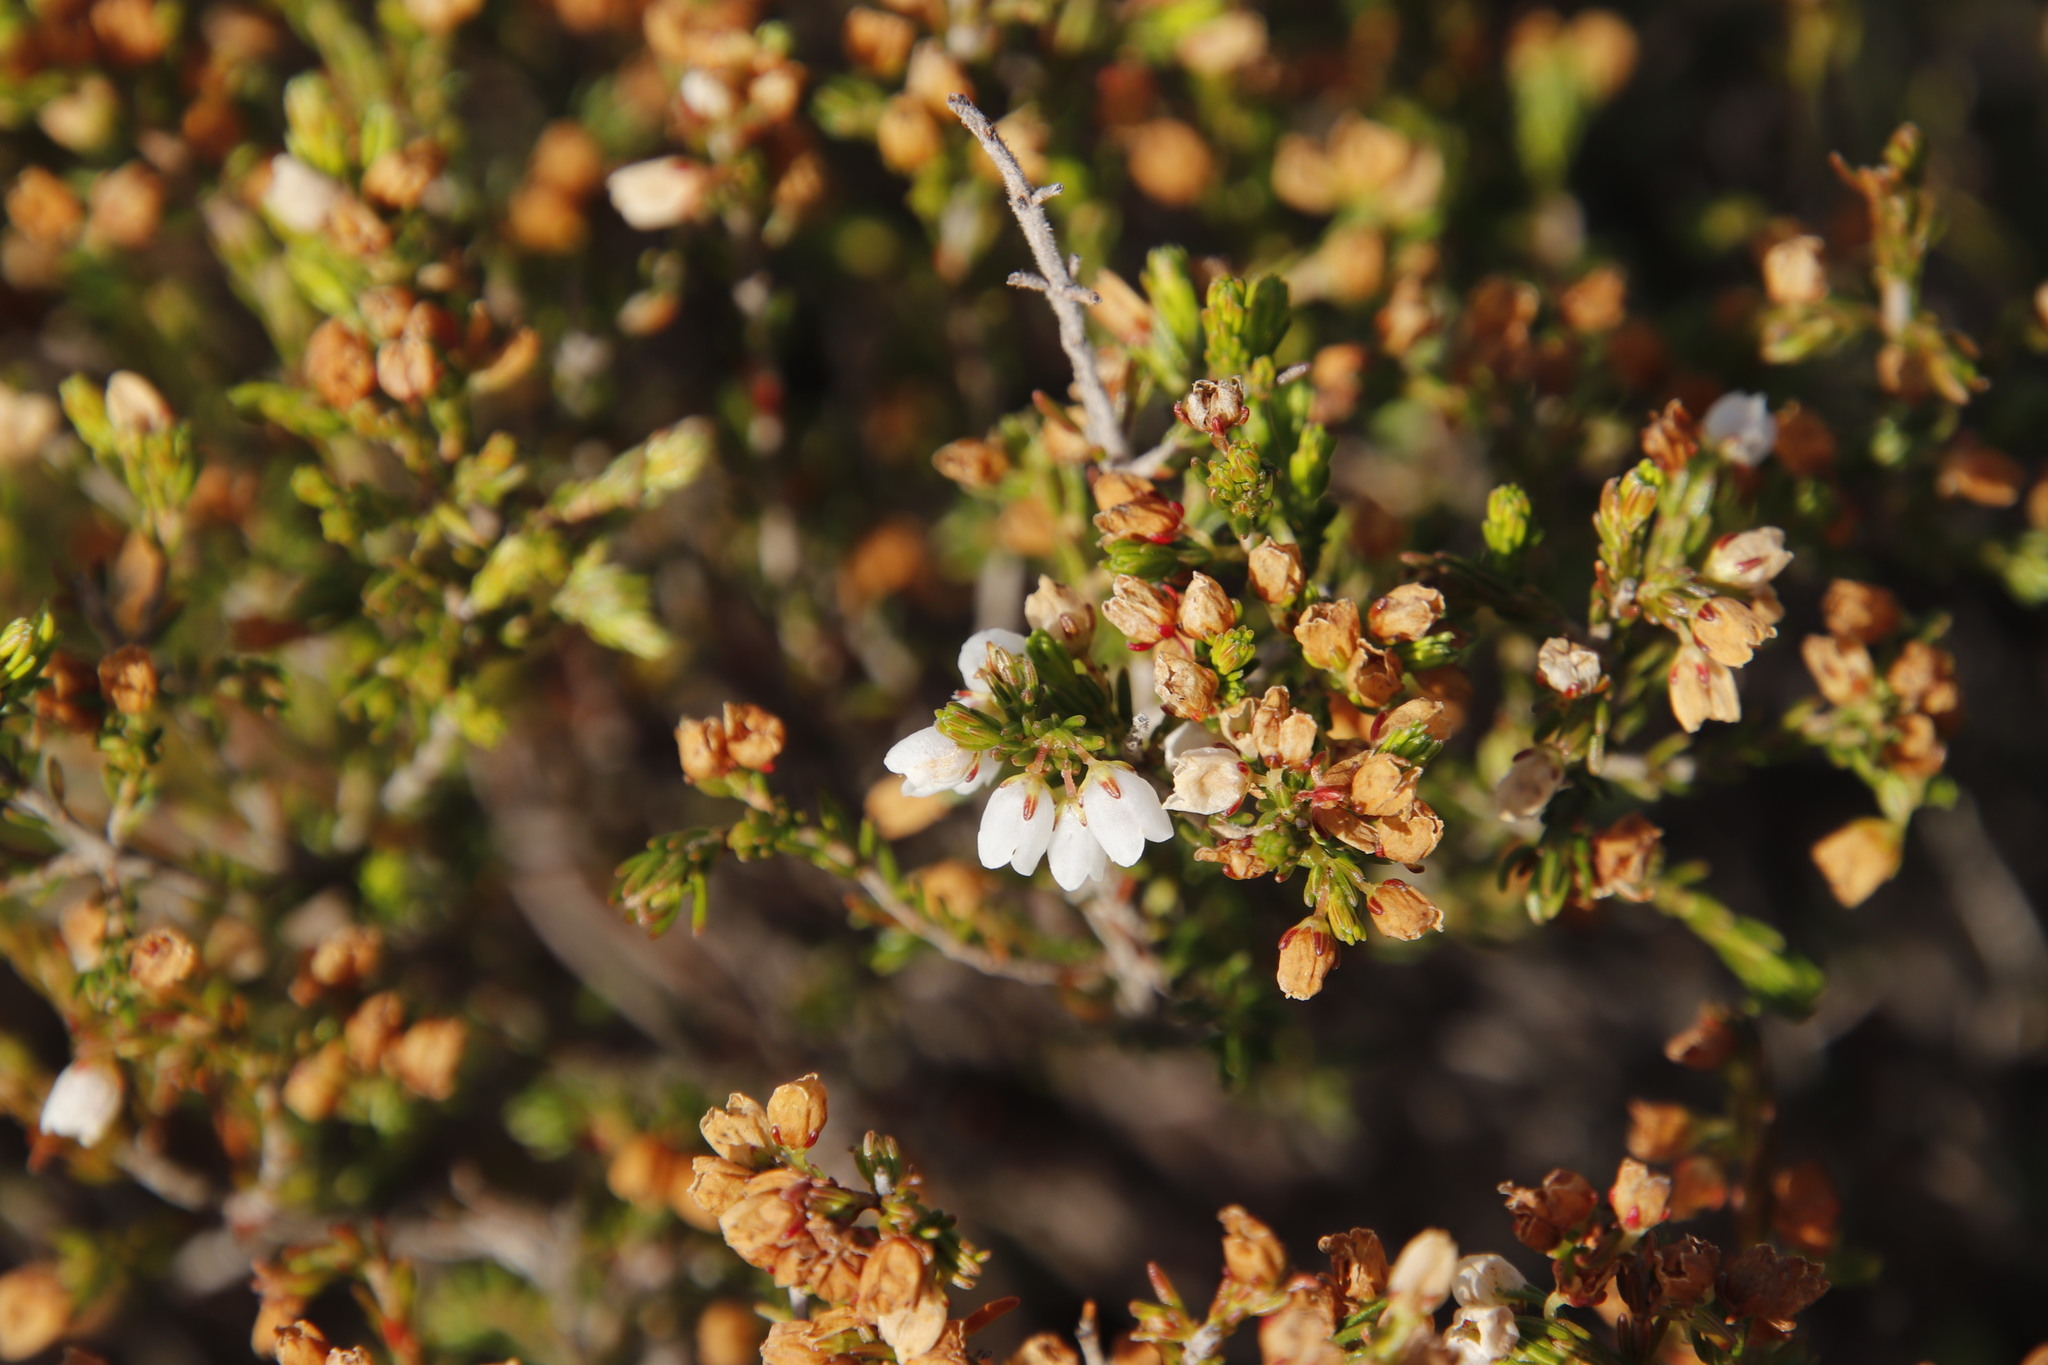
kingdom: Plantae
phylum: Tracheophyta
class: Magnoliopsida
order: Ericales
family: Ericaceae
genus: Erica
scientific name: Erica capensis
